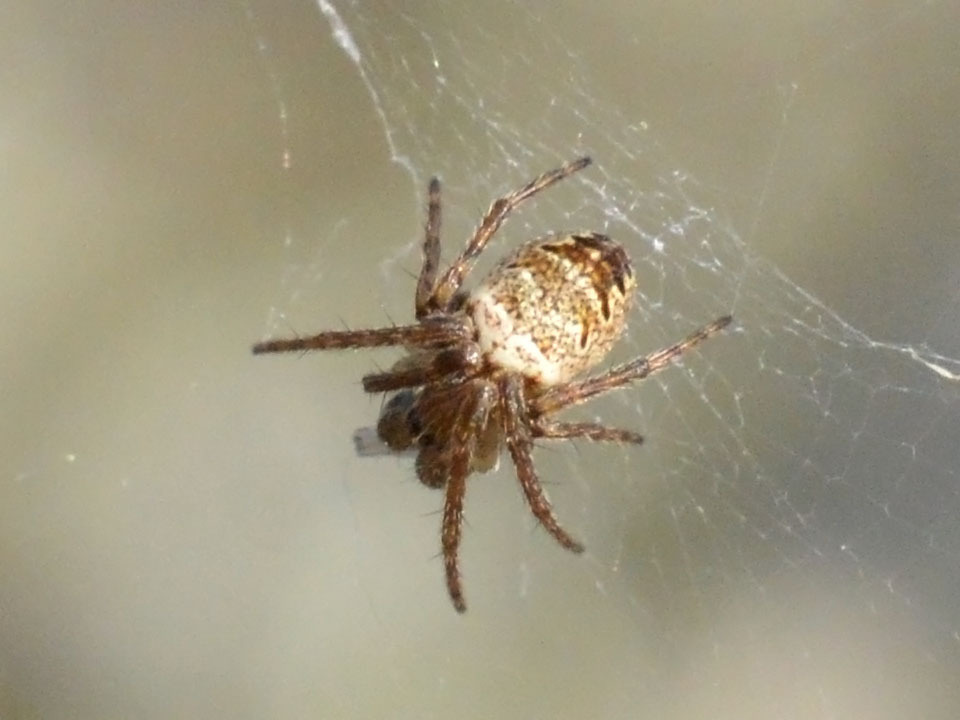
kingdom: Animalia
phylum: Arthropoda
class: Arachnida
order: Araneae
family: Araneidae
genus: Zilla
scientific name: Zilla diodia
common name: Zilla diodia
